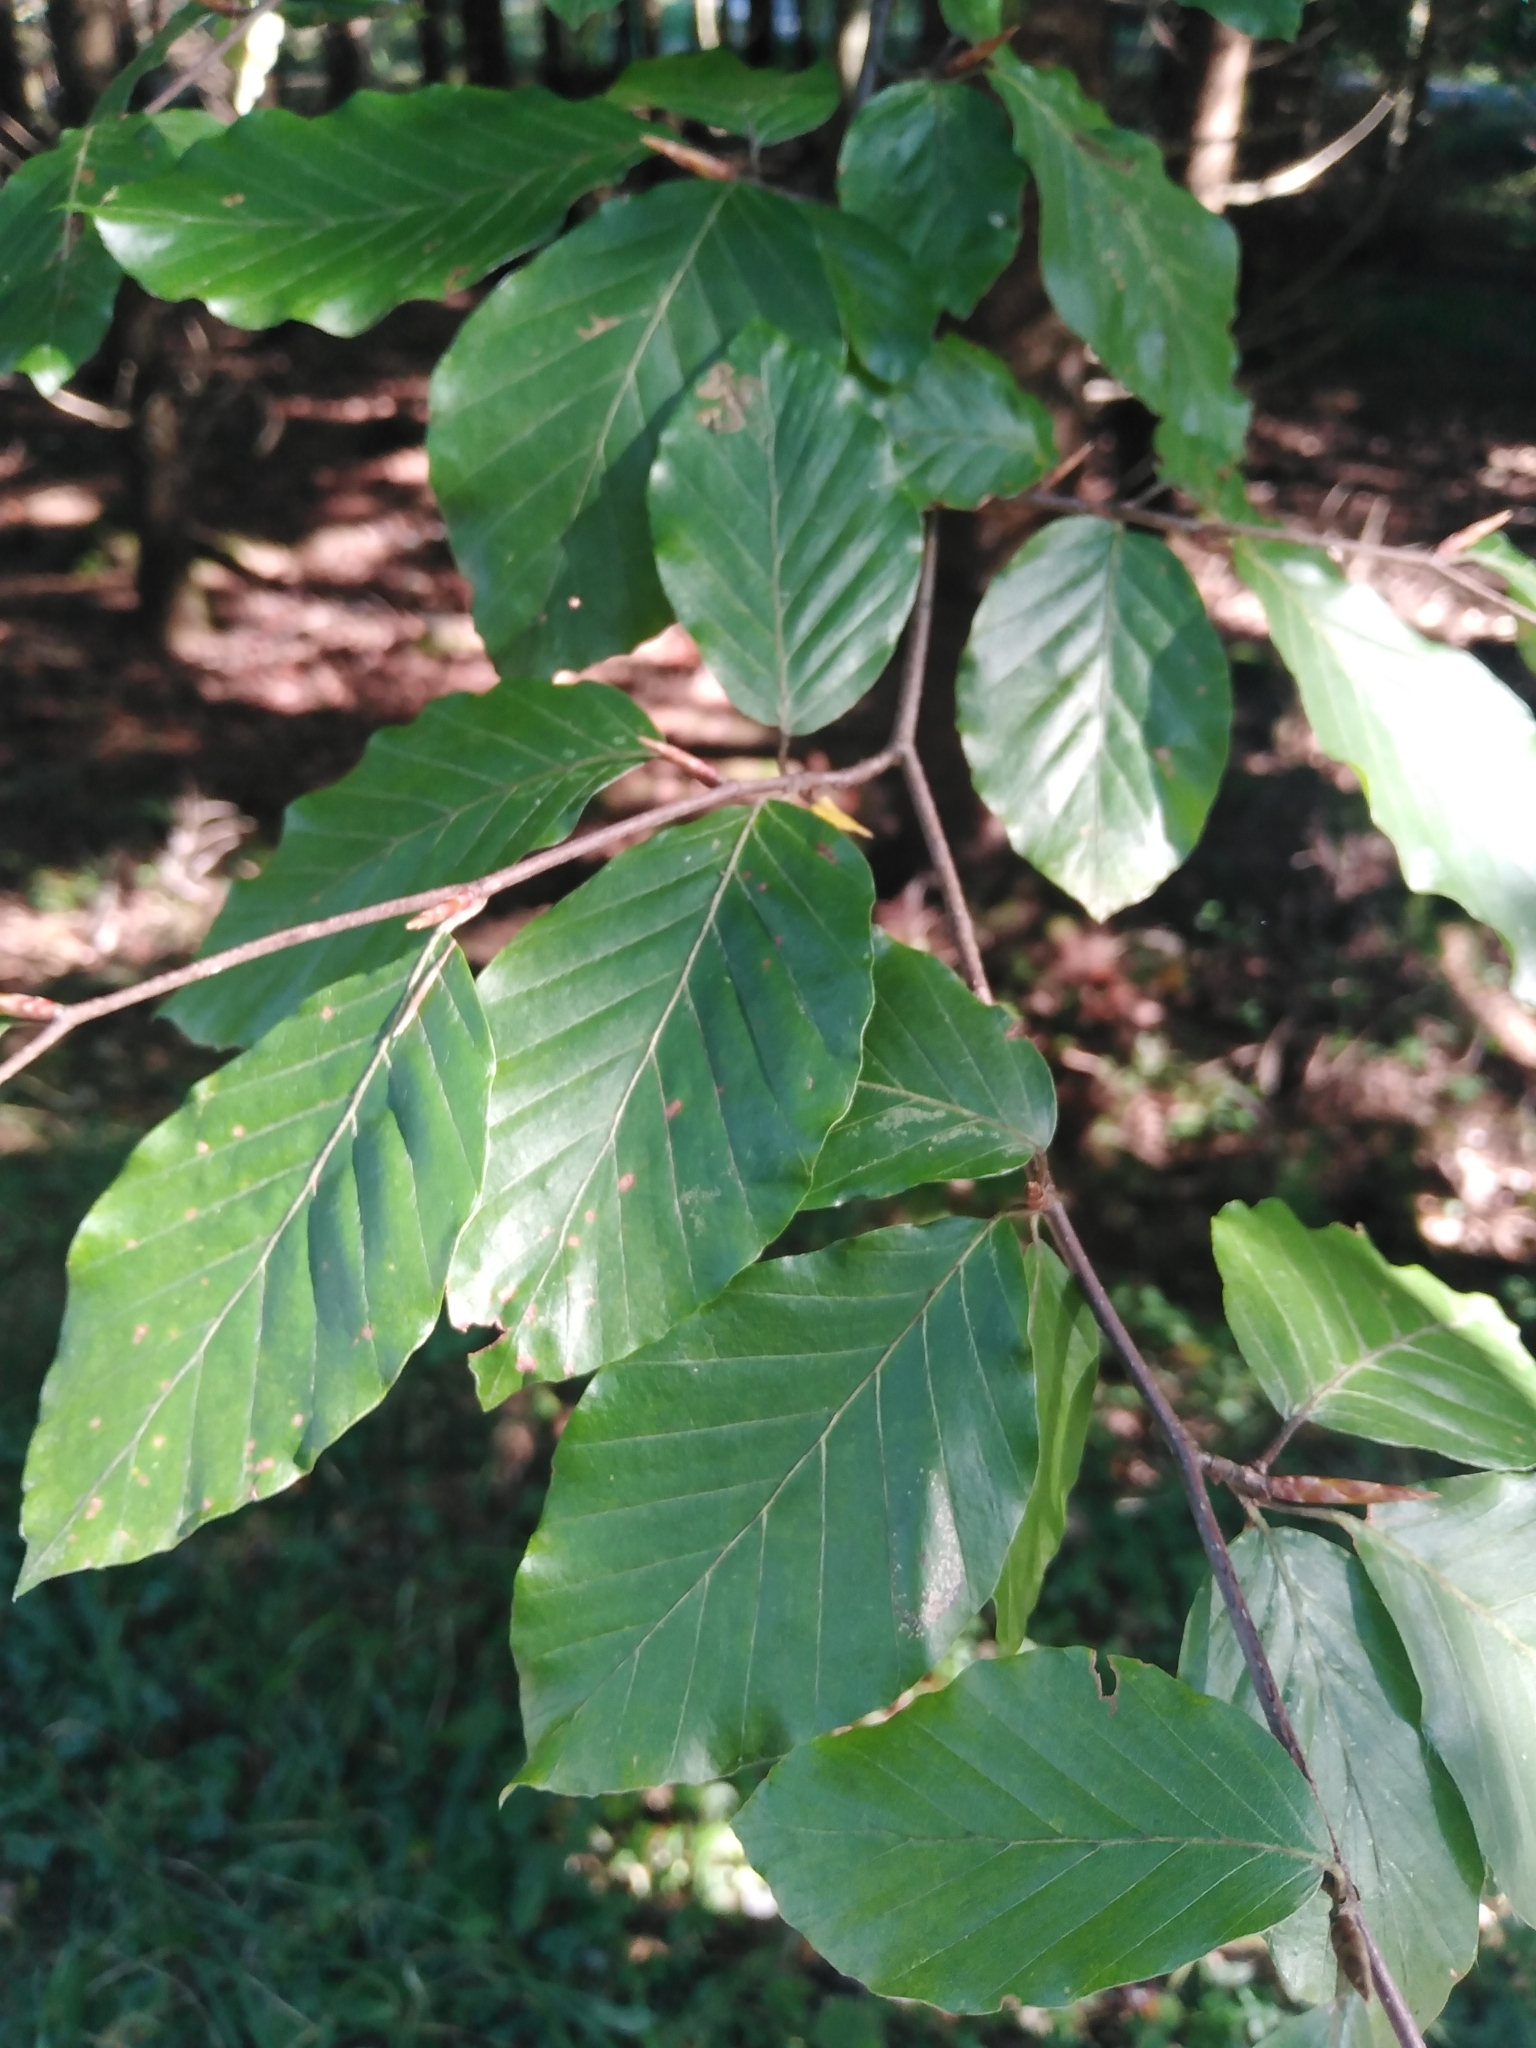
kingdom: Plantae
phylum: Tracheophyta
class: Magnoliopsida
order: Fagales
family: Fagaceae
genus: Fagus
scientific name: Fagus sylvatica
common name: Beech
